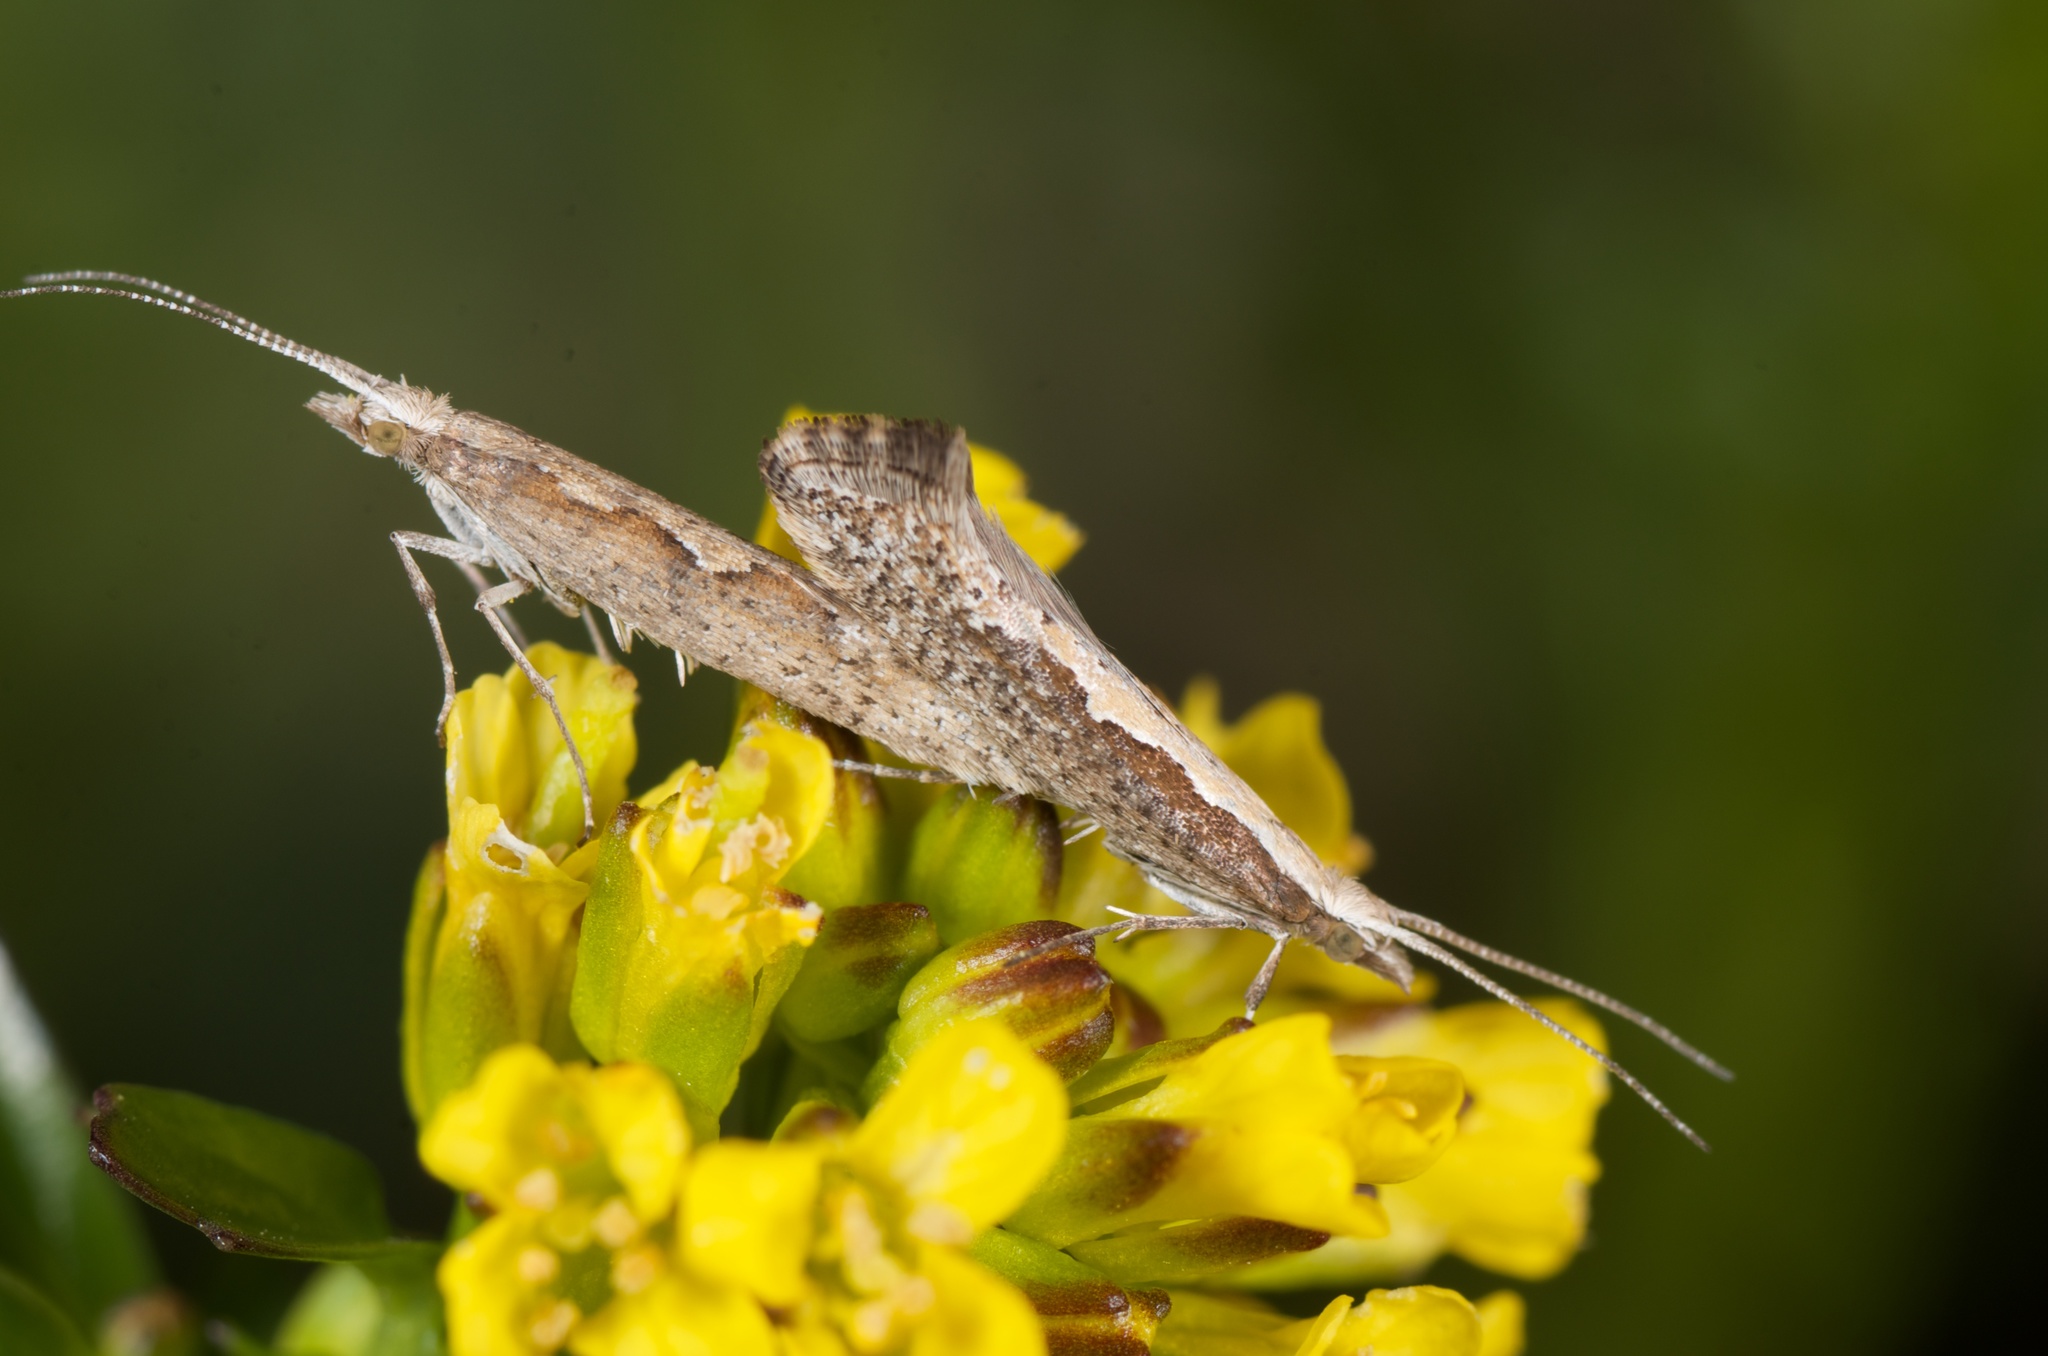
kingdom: Animalia
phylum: Arthropoda
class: Insecta
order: Lepidoptera
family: Plutellidae
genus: Plutella
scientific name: Plutella xylostella
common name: Diamond-back moth
